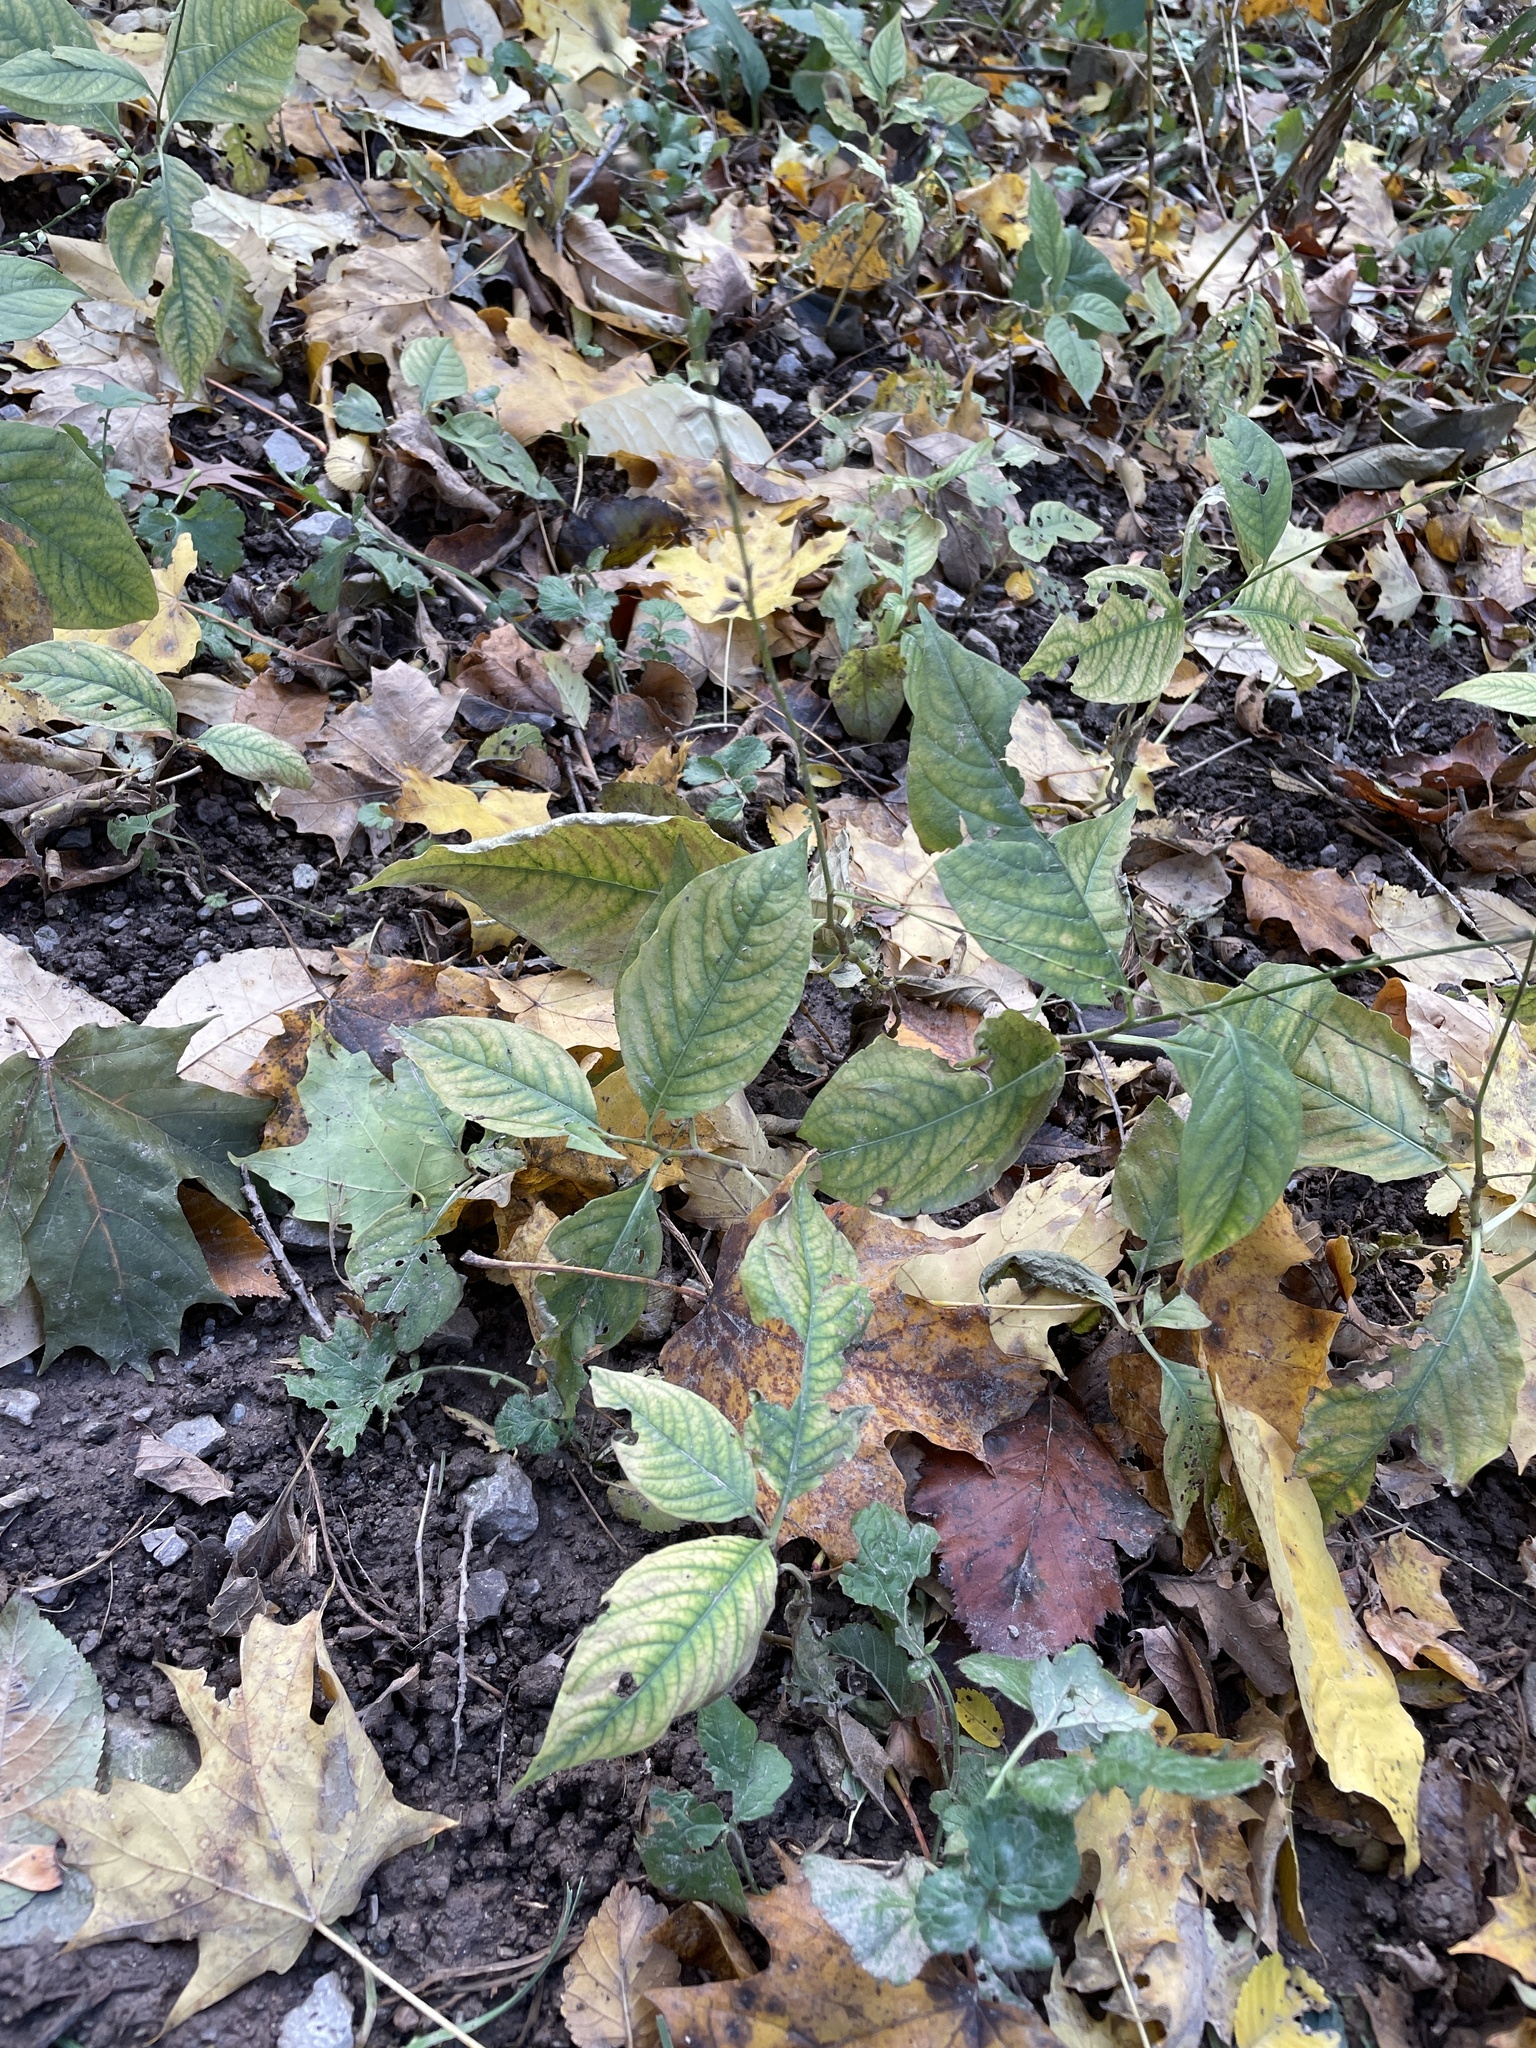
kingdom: Plantae
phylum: Tracheophyta
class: Magnoliopsida
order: Caryophyllales
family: Polygonaceae
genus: Persicaria
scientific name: Persicaria virginiana
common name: Jumpseed
